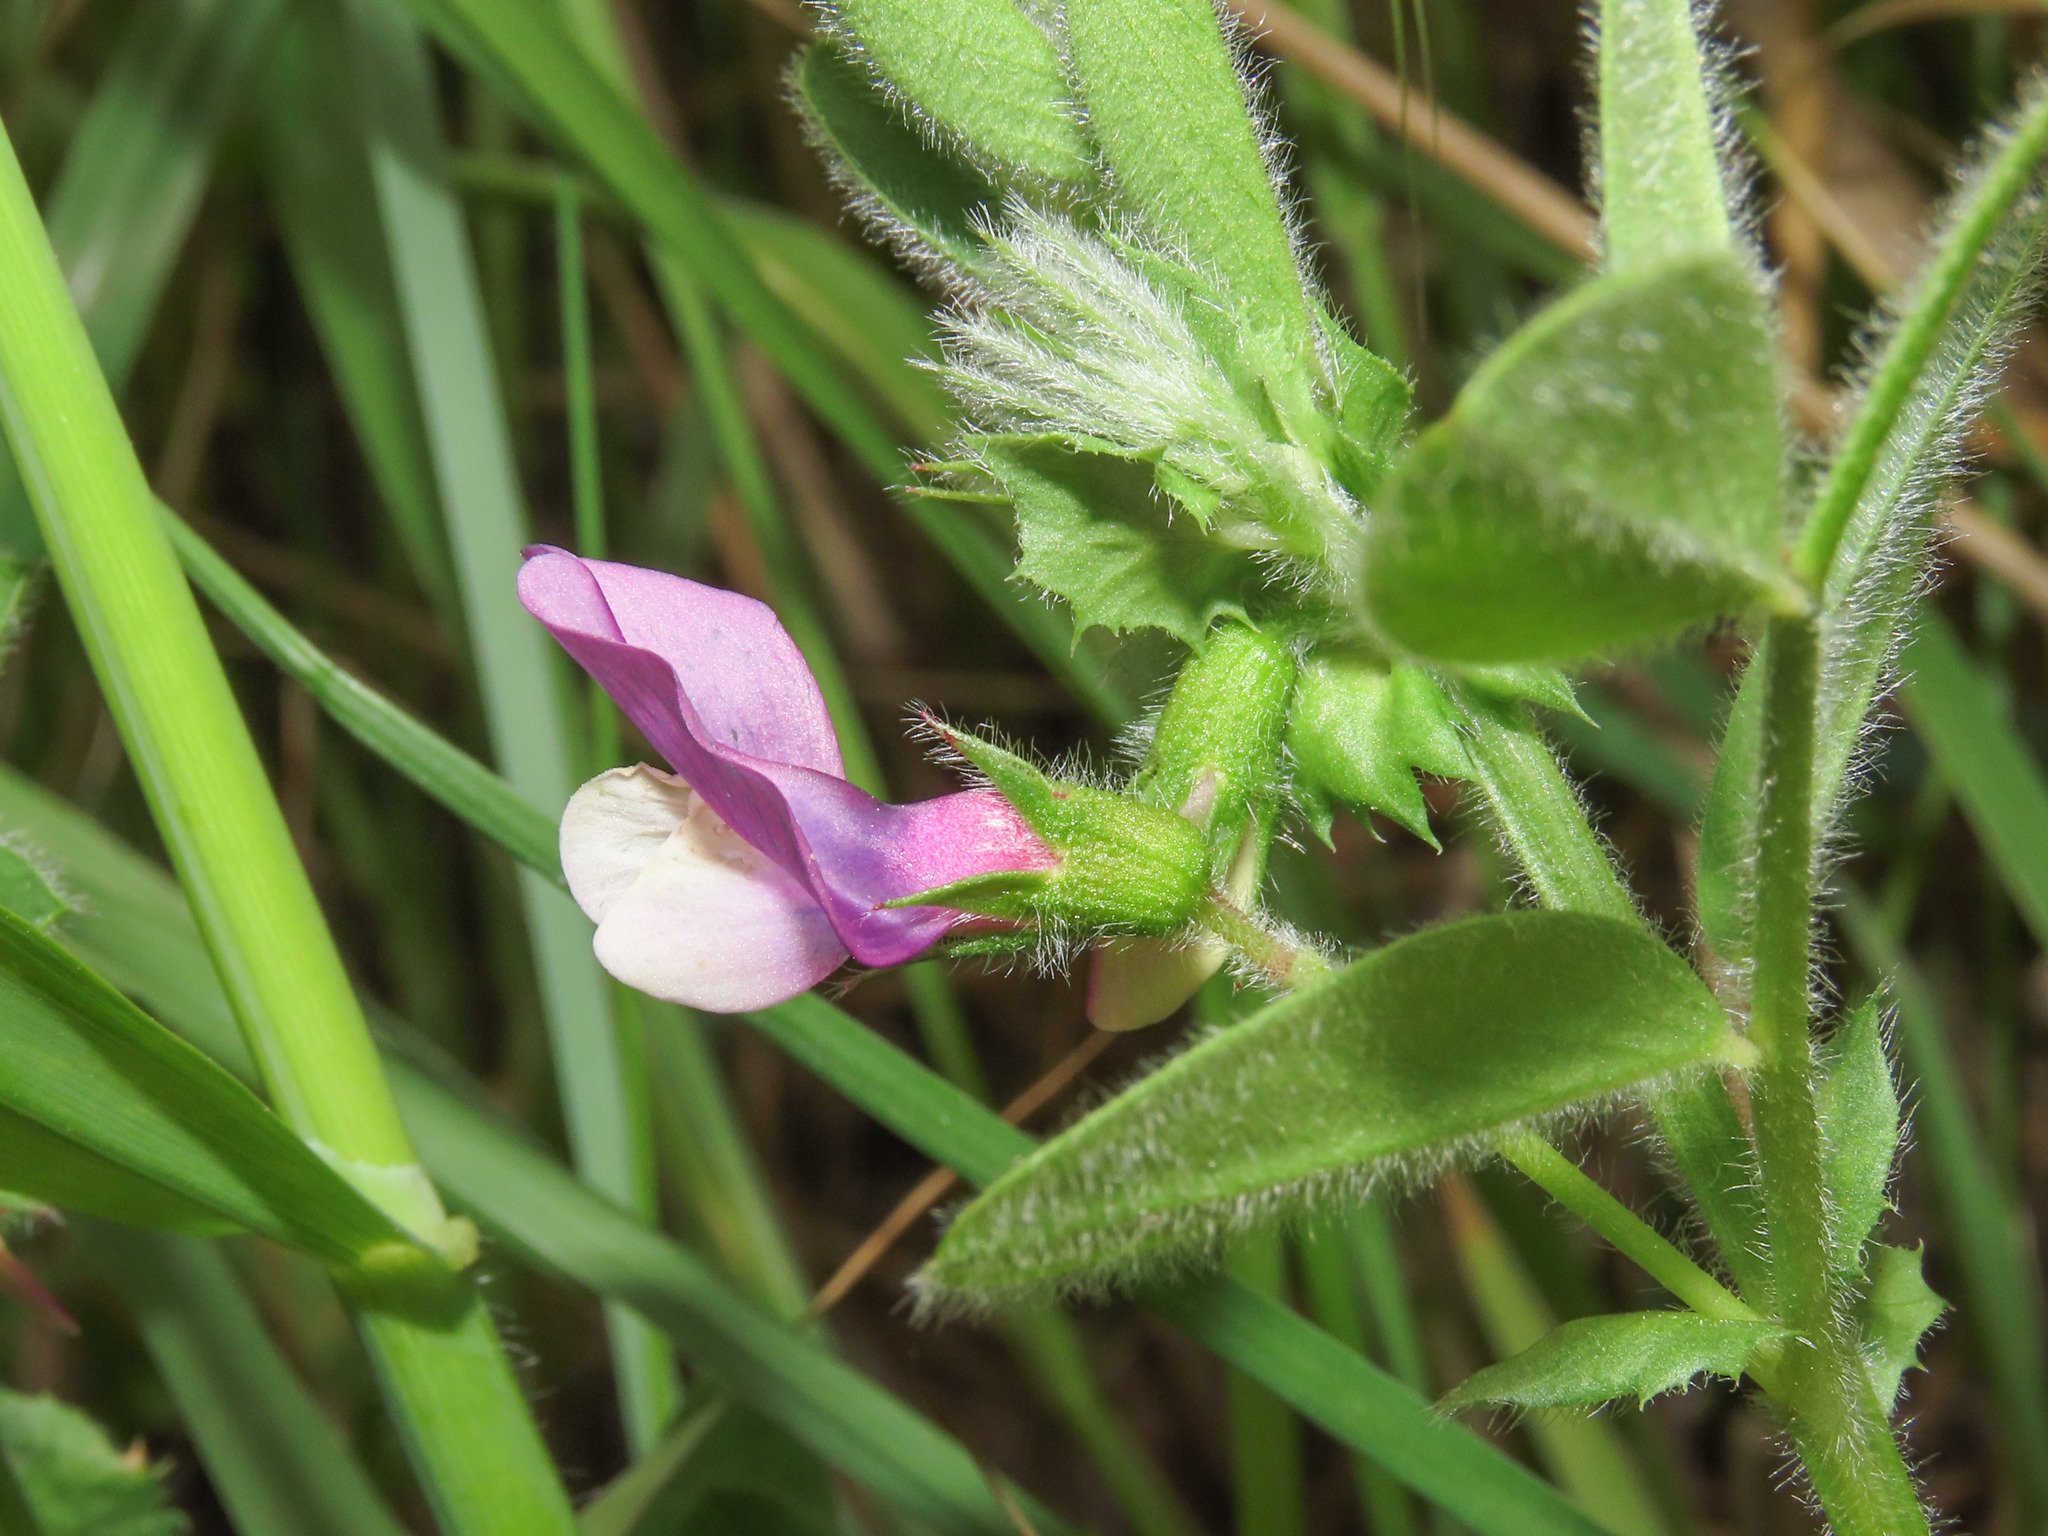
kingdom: Plantae
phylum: Tracheophyta
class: Magnoliopsida
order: Fabales
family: Fabaceae
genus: Vicia
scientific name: Vicia bithynica
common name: Bithynian vetch
